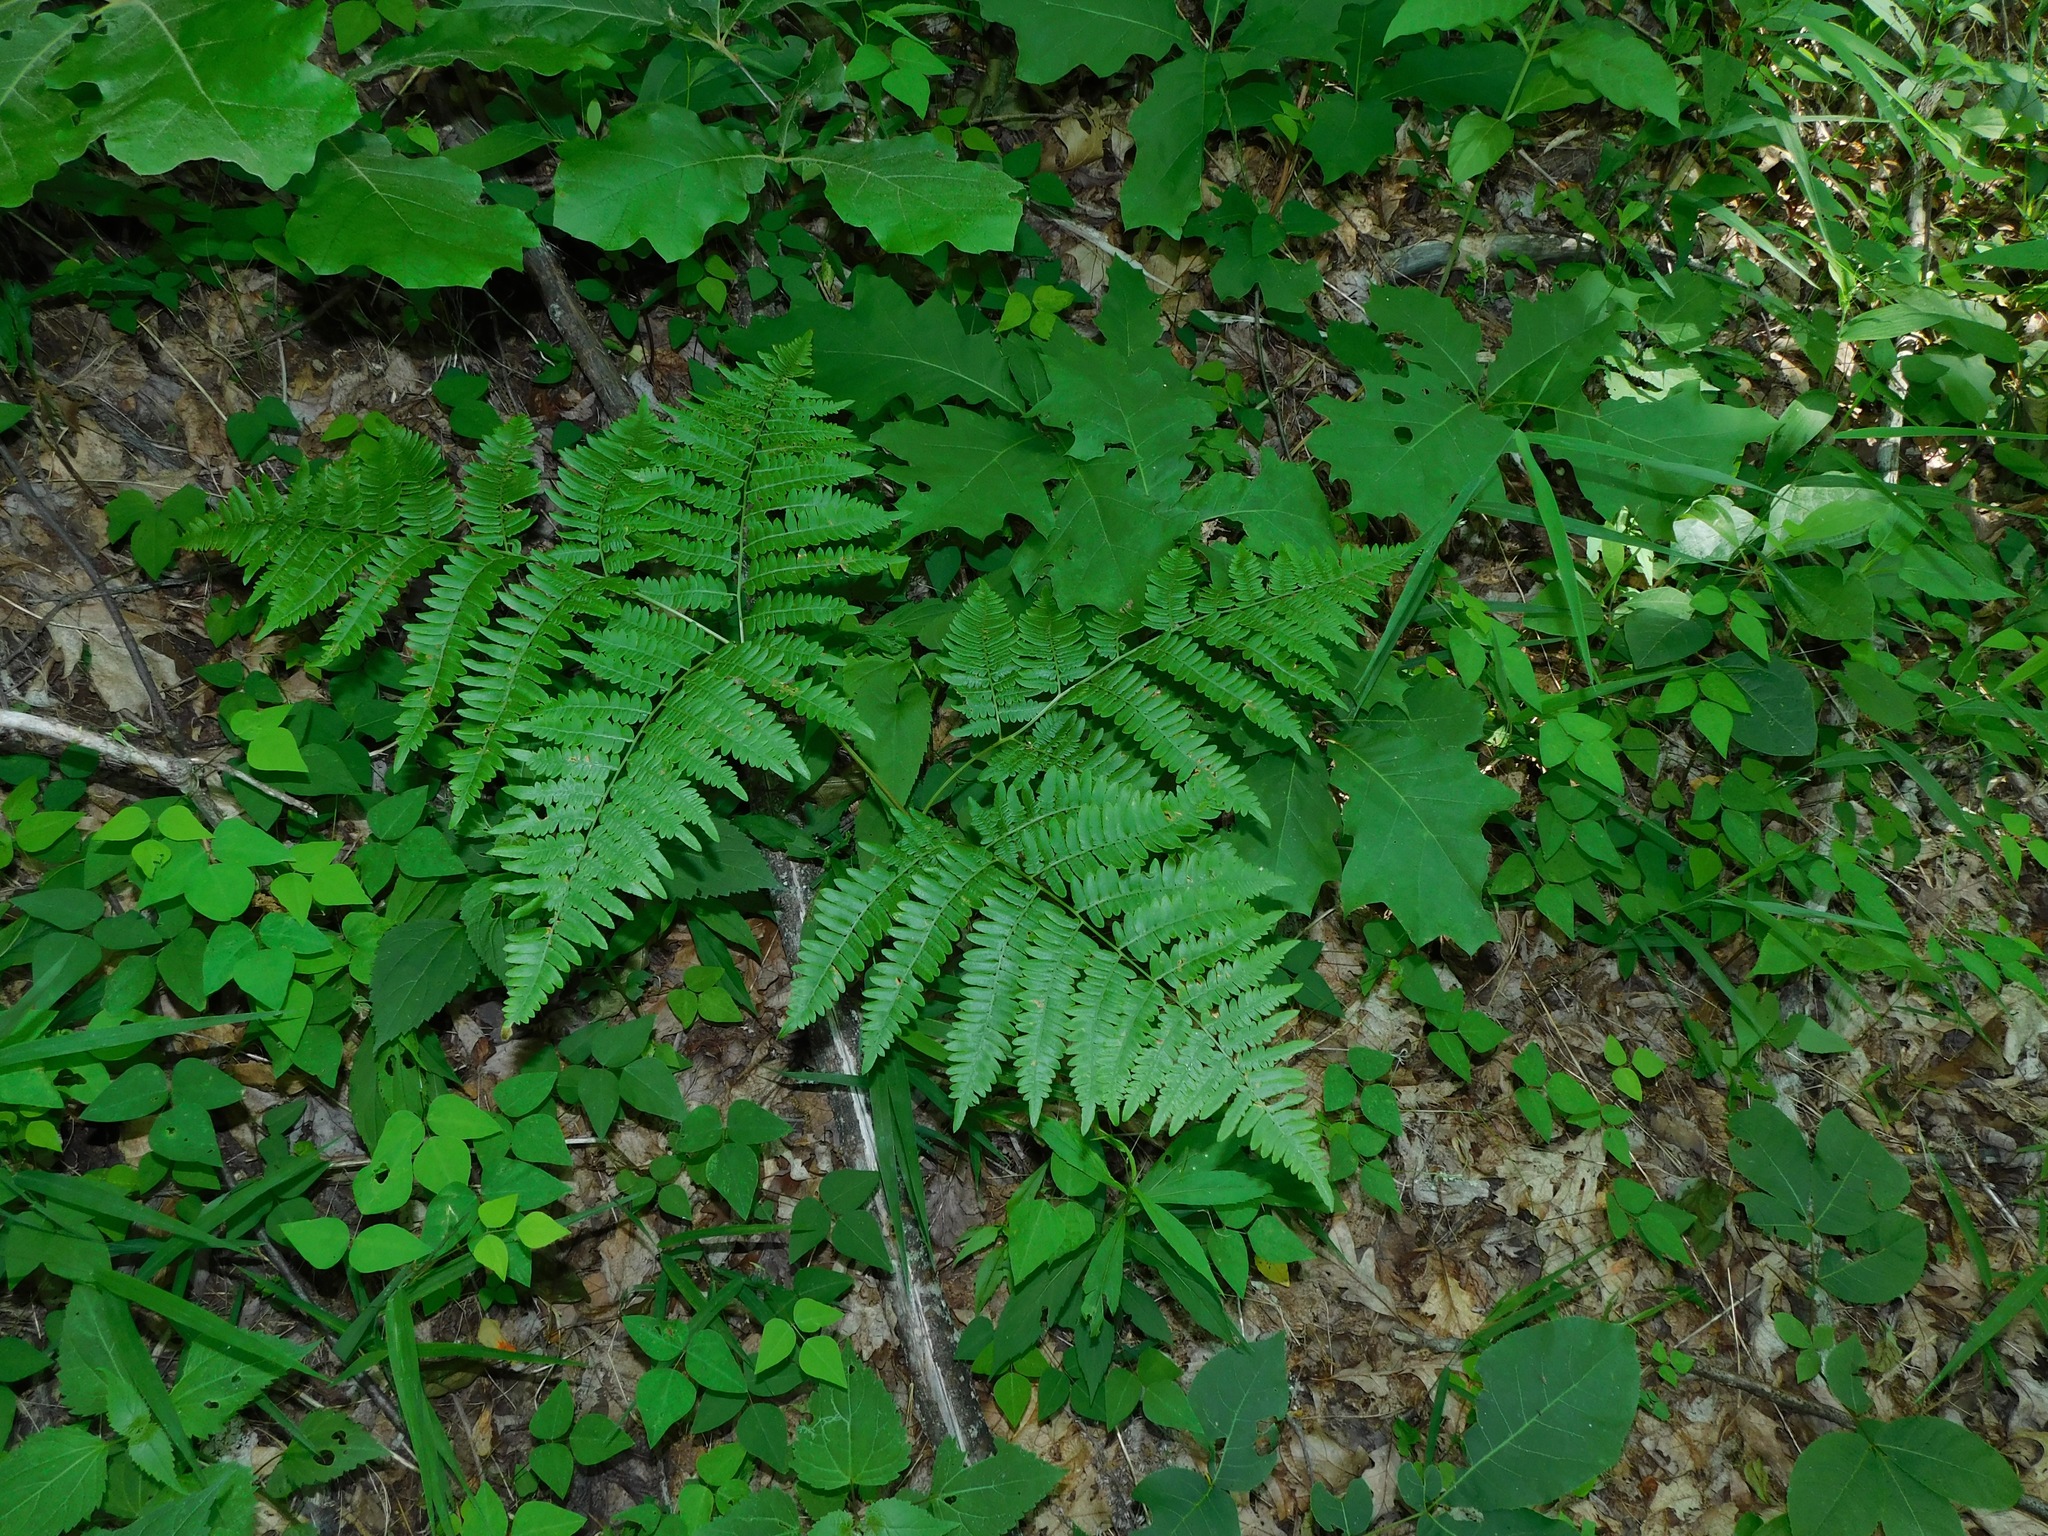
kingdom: Plantae
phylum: Tracheophyta
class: Polypodiopsida
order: Polypodiales
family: Dennstaedtiaceae
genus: Pteridium
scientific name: Pteridium aquilinum
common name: Bracken
